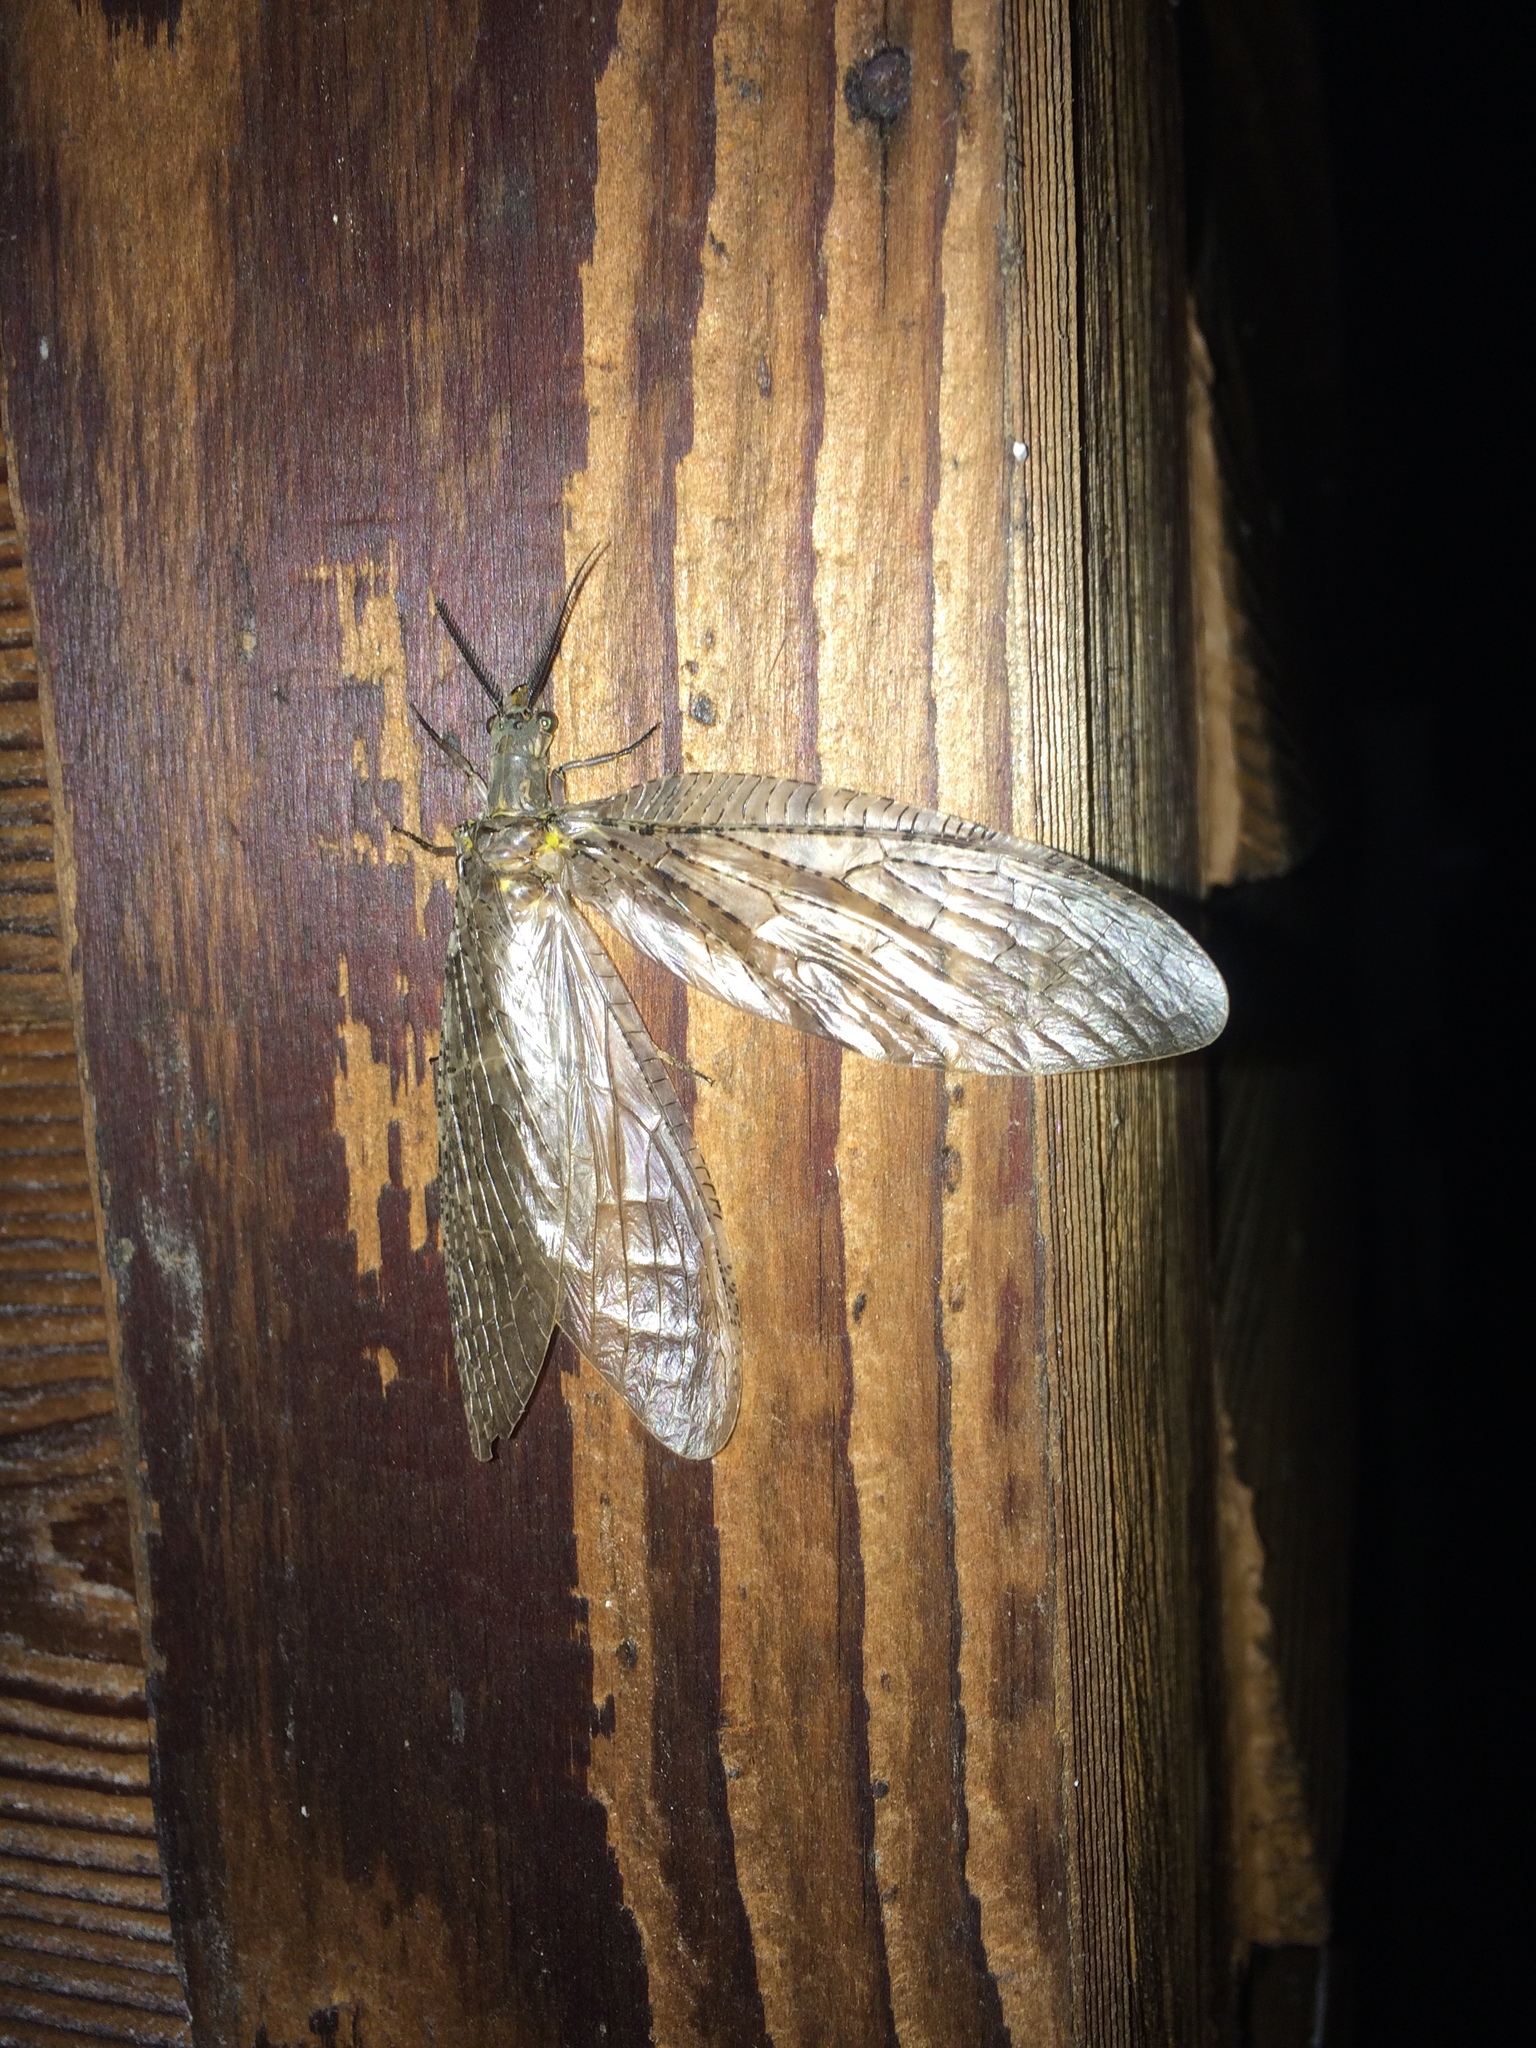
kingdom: Animalia
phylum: Arthropoda
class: Insecta
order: Megaloptera
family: Corydalidae
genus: Chauliodes
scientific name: Chauliodes pectinicornis
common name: Summer fishfly
